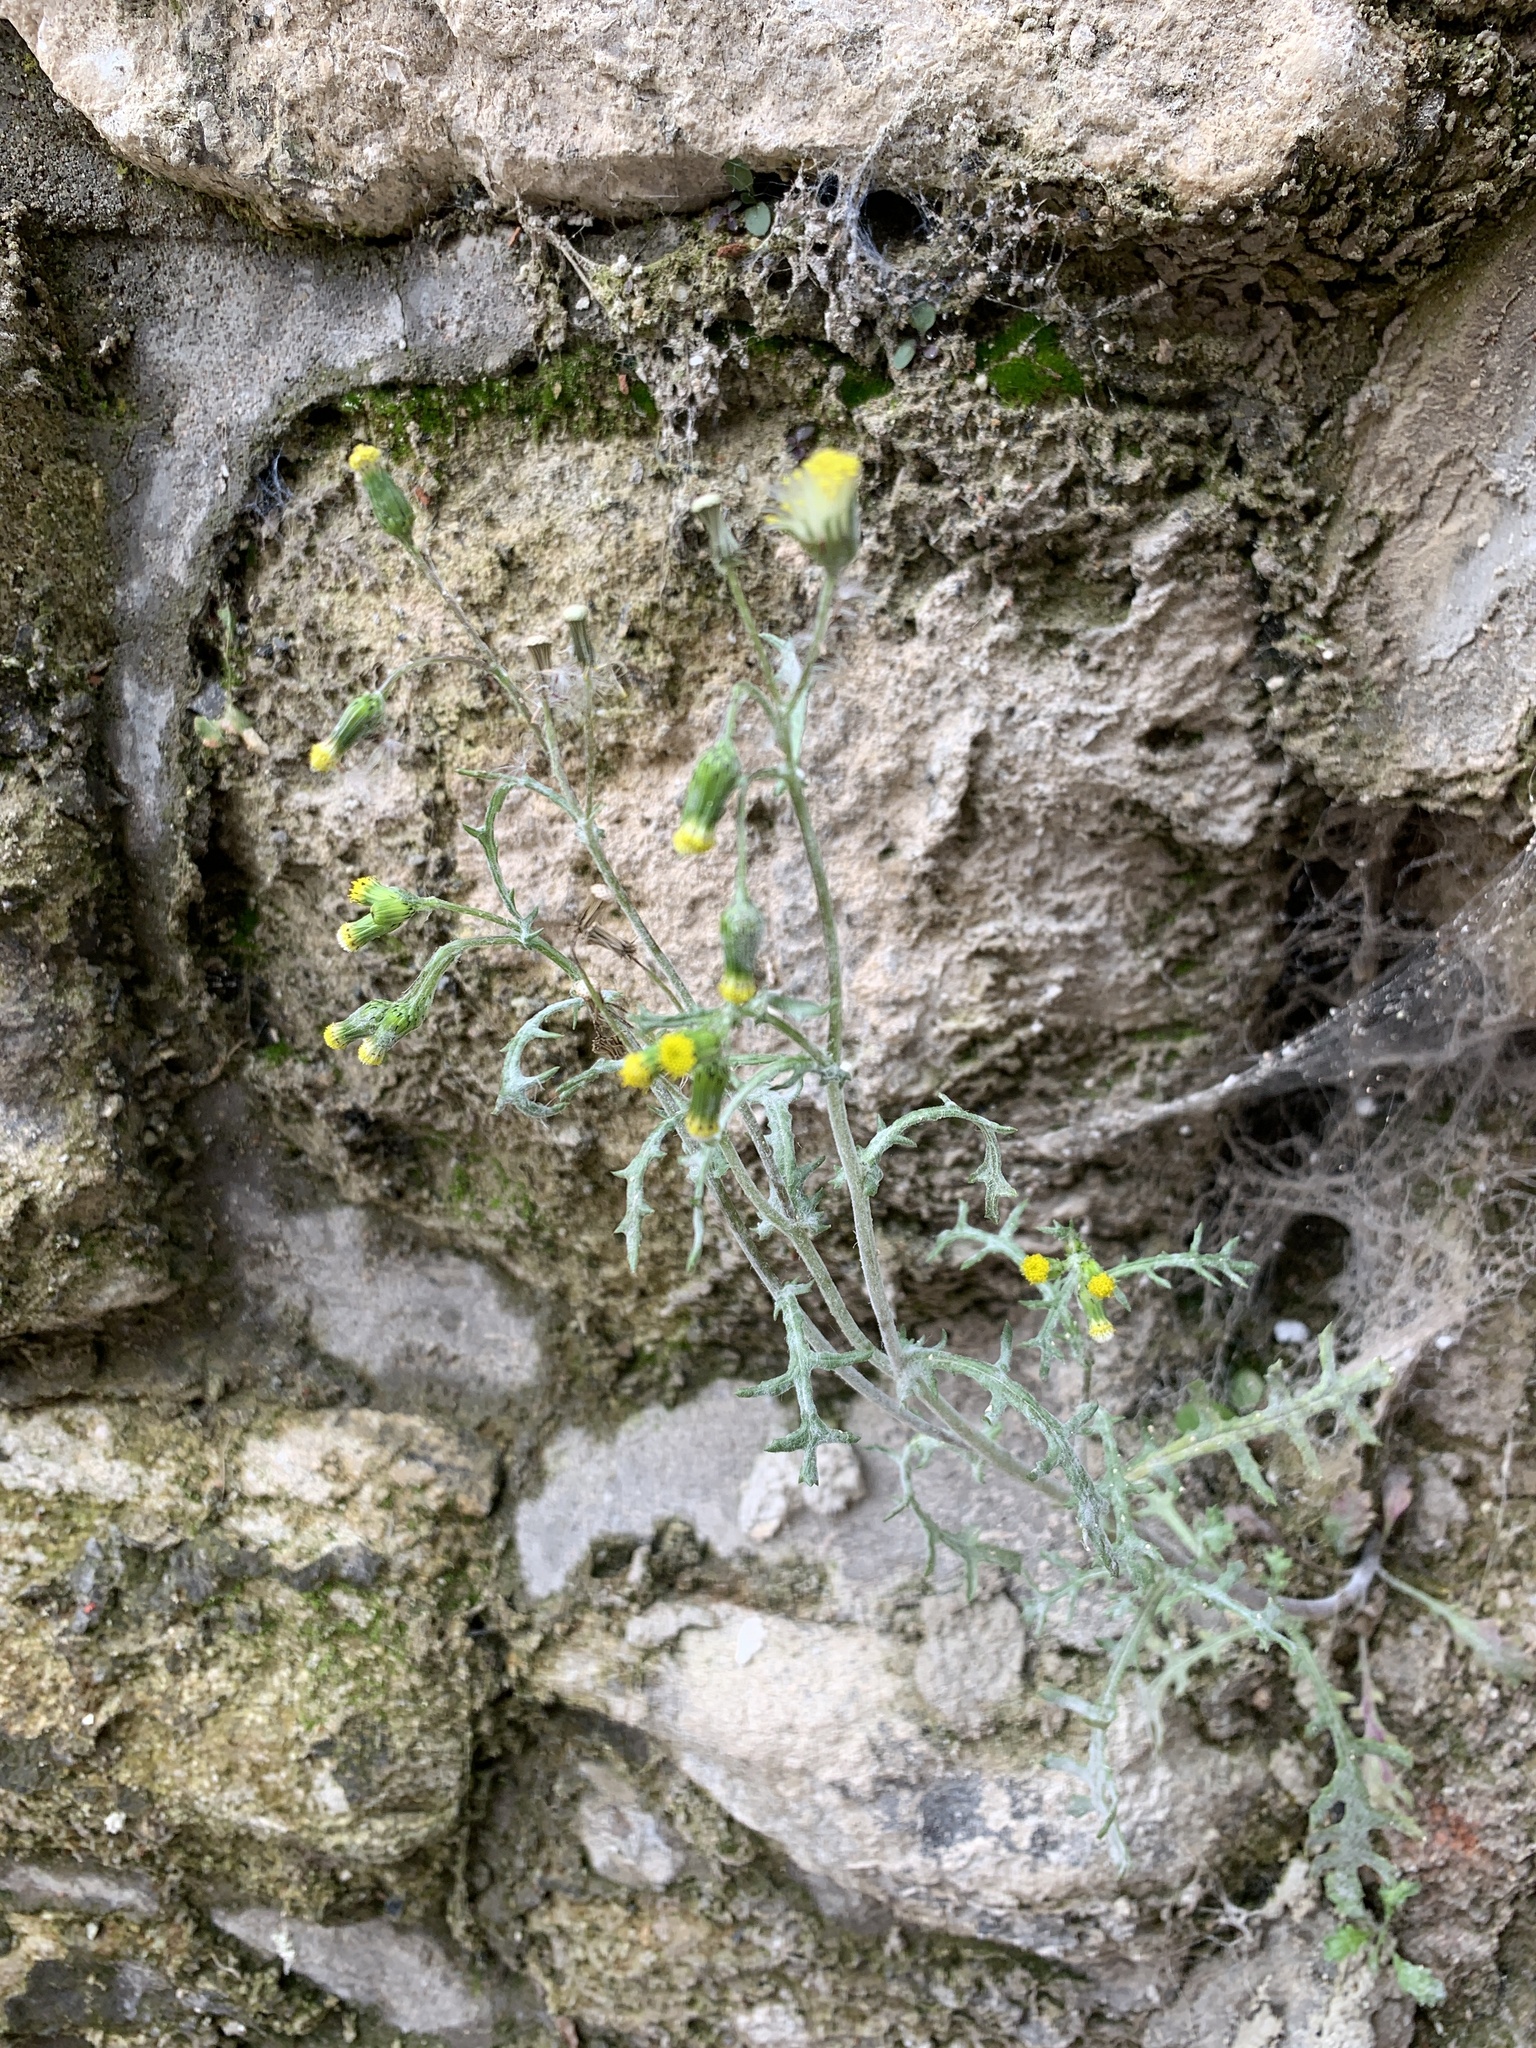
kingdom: Plantae
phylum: Tracheophyta
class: Magnoliopsida
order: Asterales
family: Asteraceae
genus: Senecio
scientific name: Senecio vulgaris
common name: Old-man-in-the-spring
